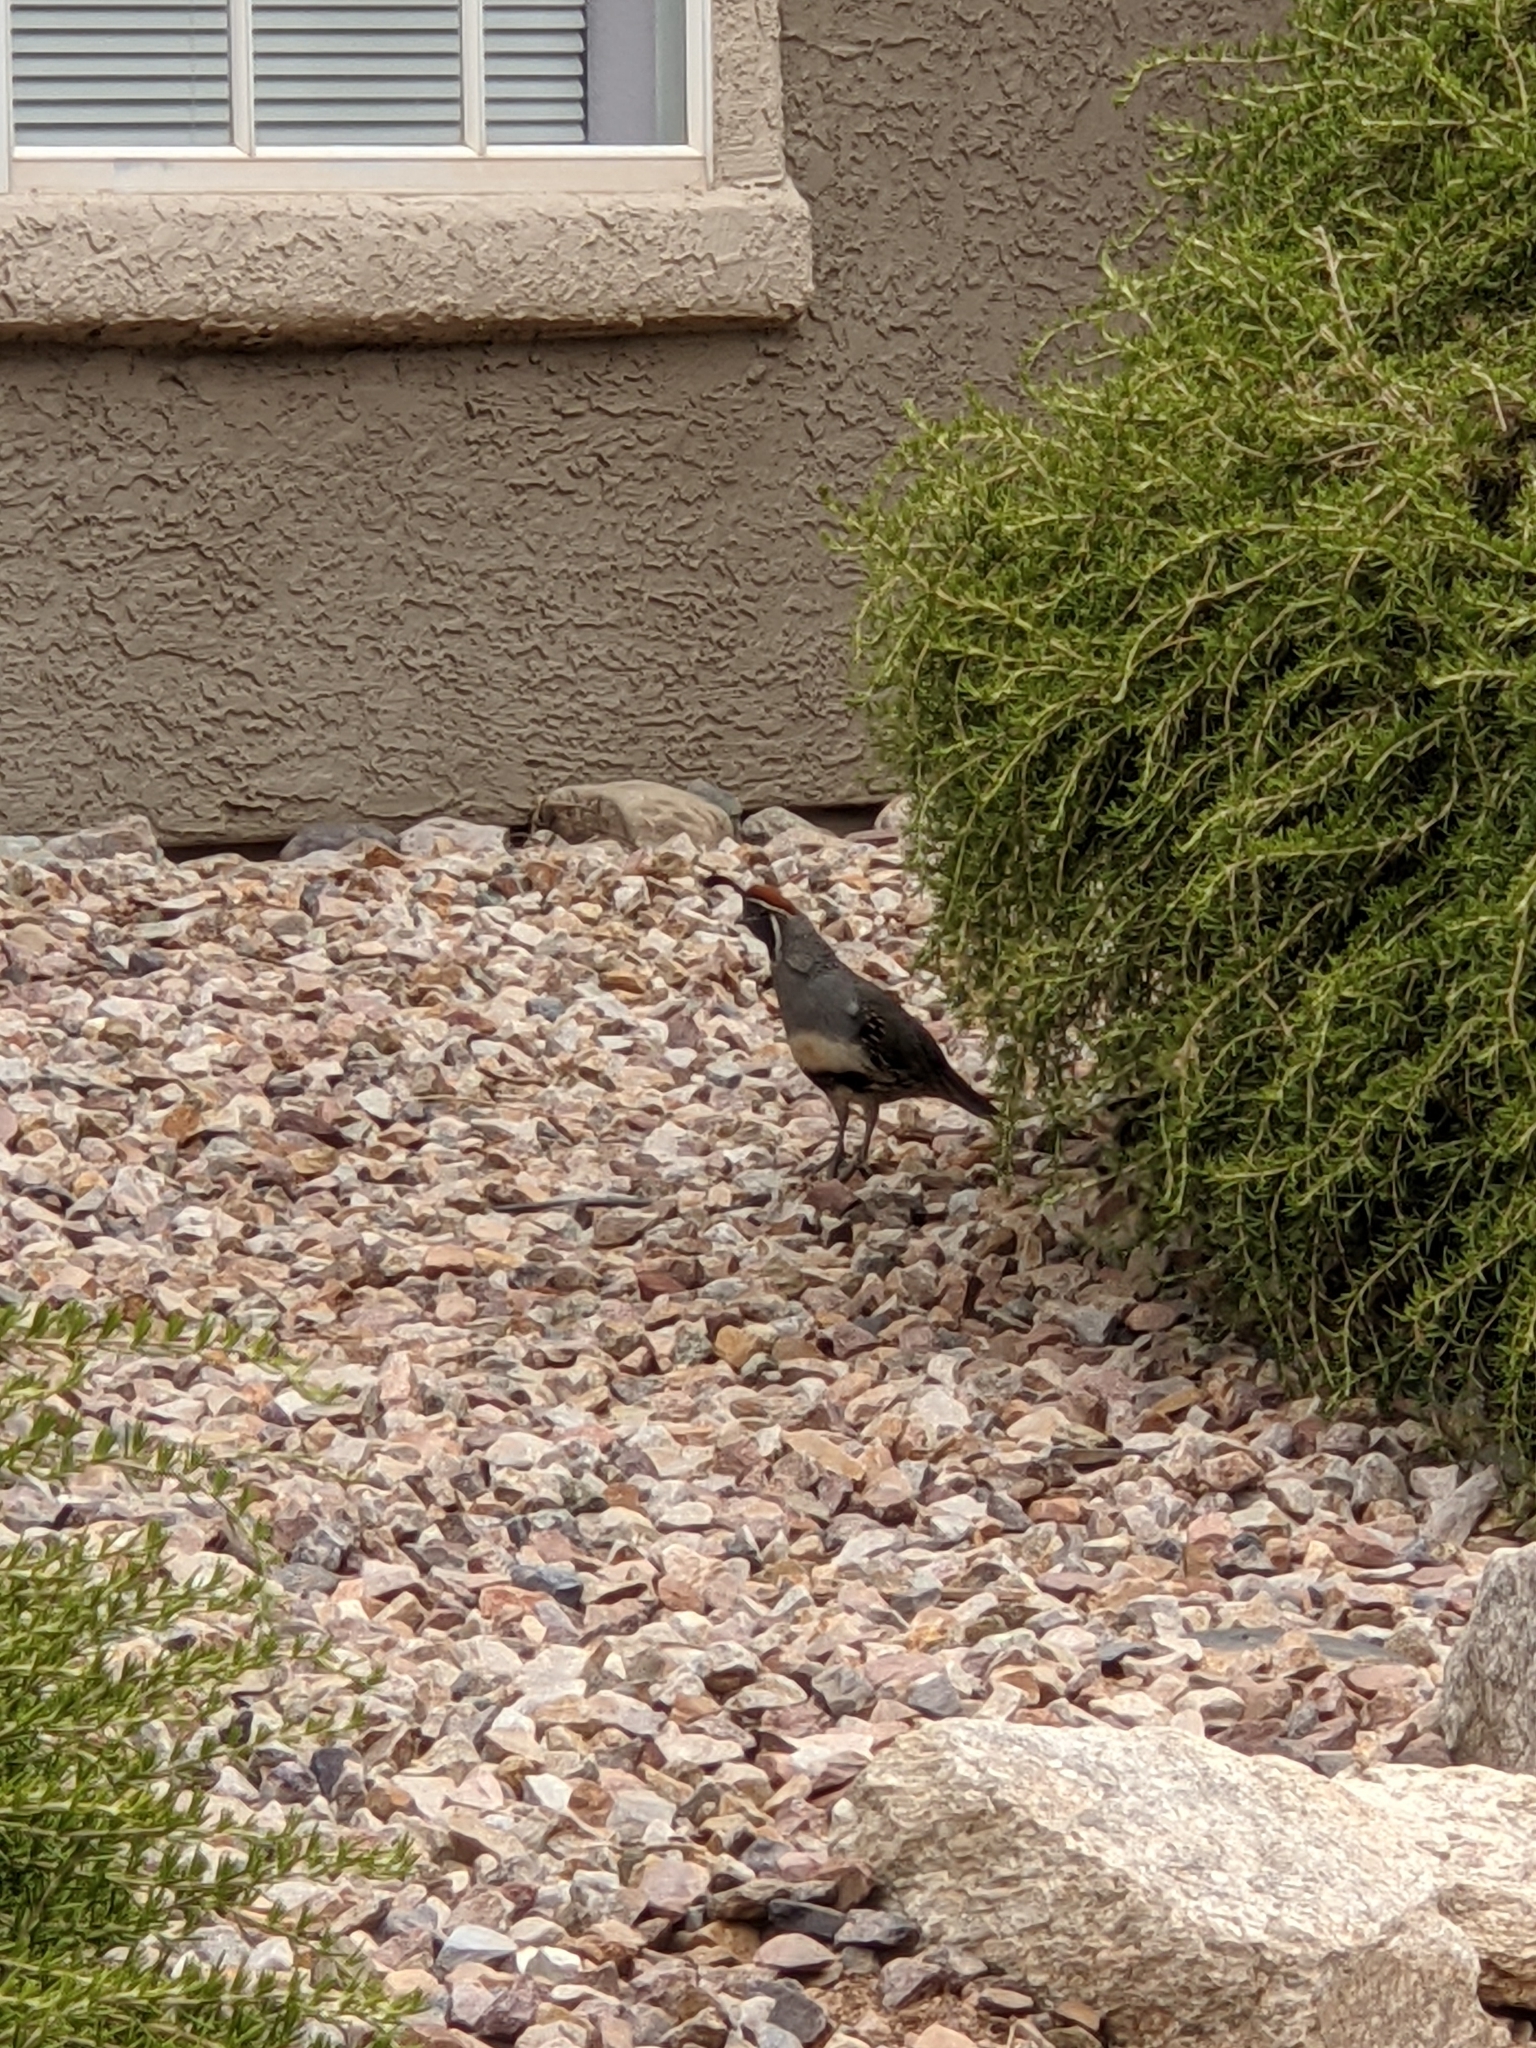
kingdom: Animalia
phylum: Chordata
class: Aves
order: Galliformes
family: Odontophoridae
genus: Callipepla
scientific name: Callipepla gambelii
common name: Gambel's quail
